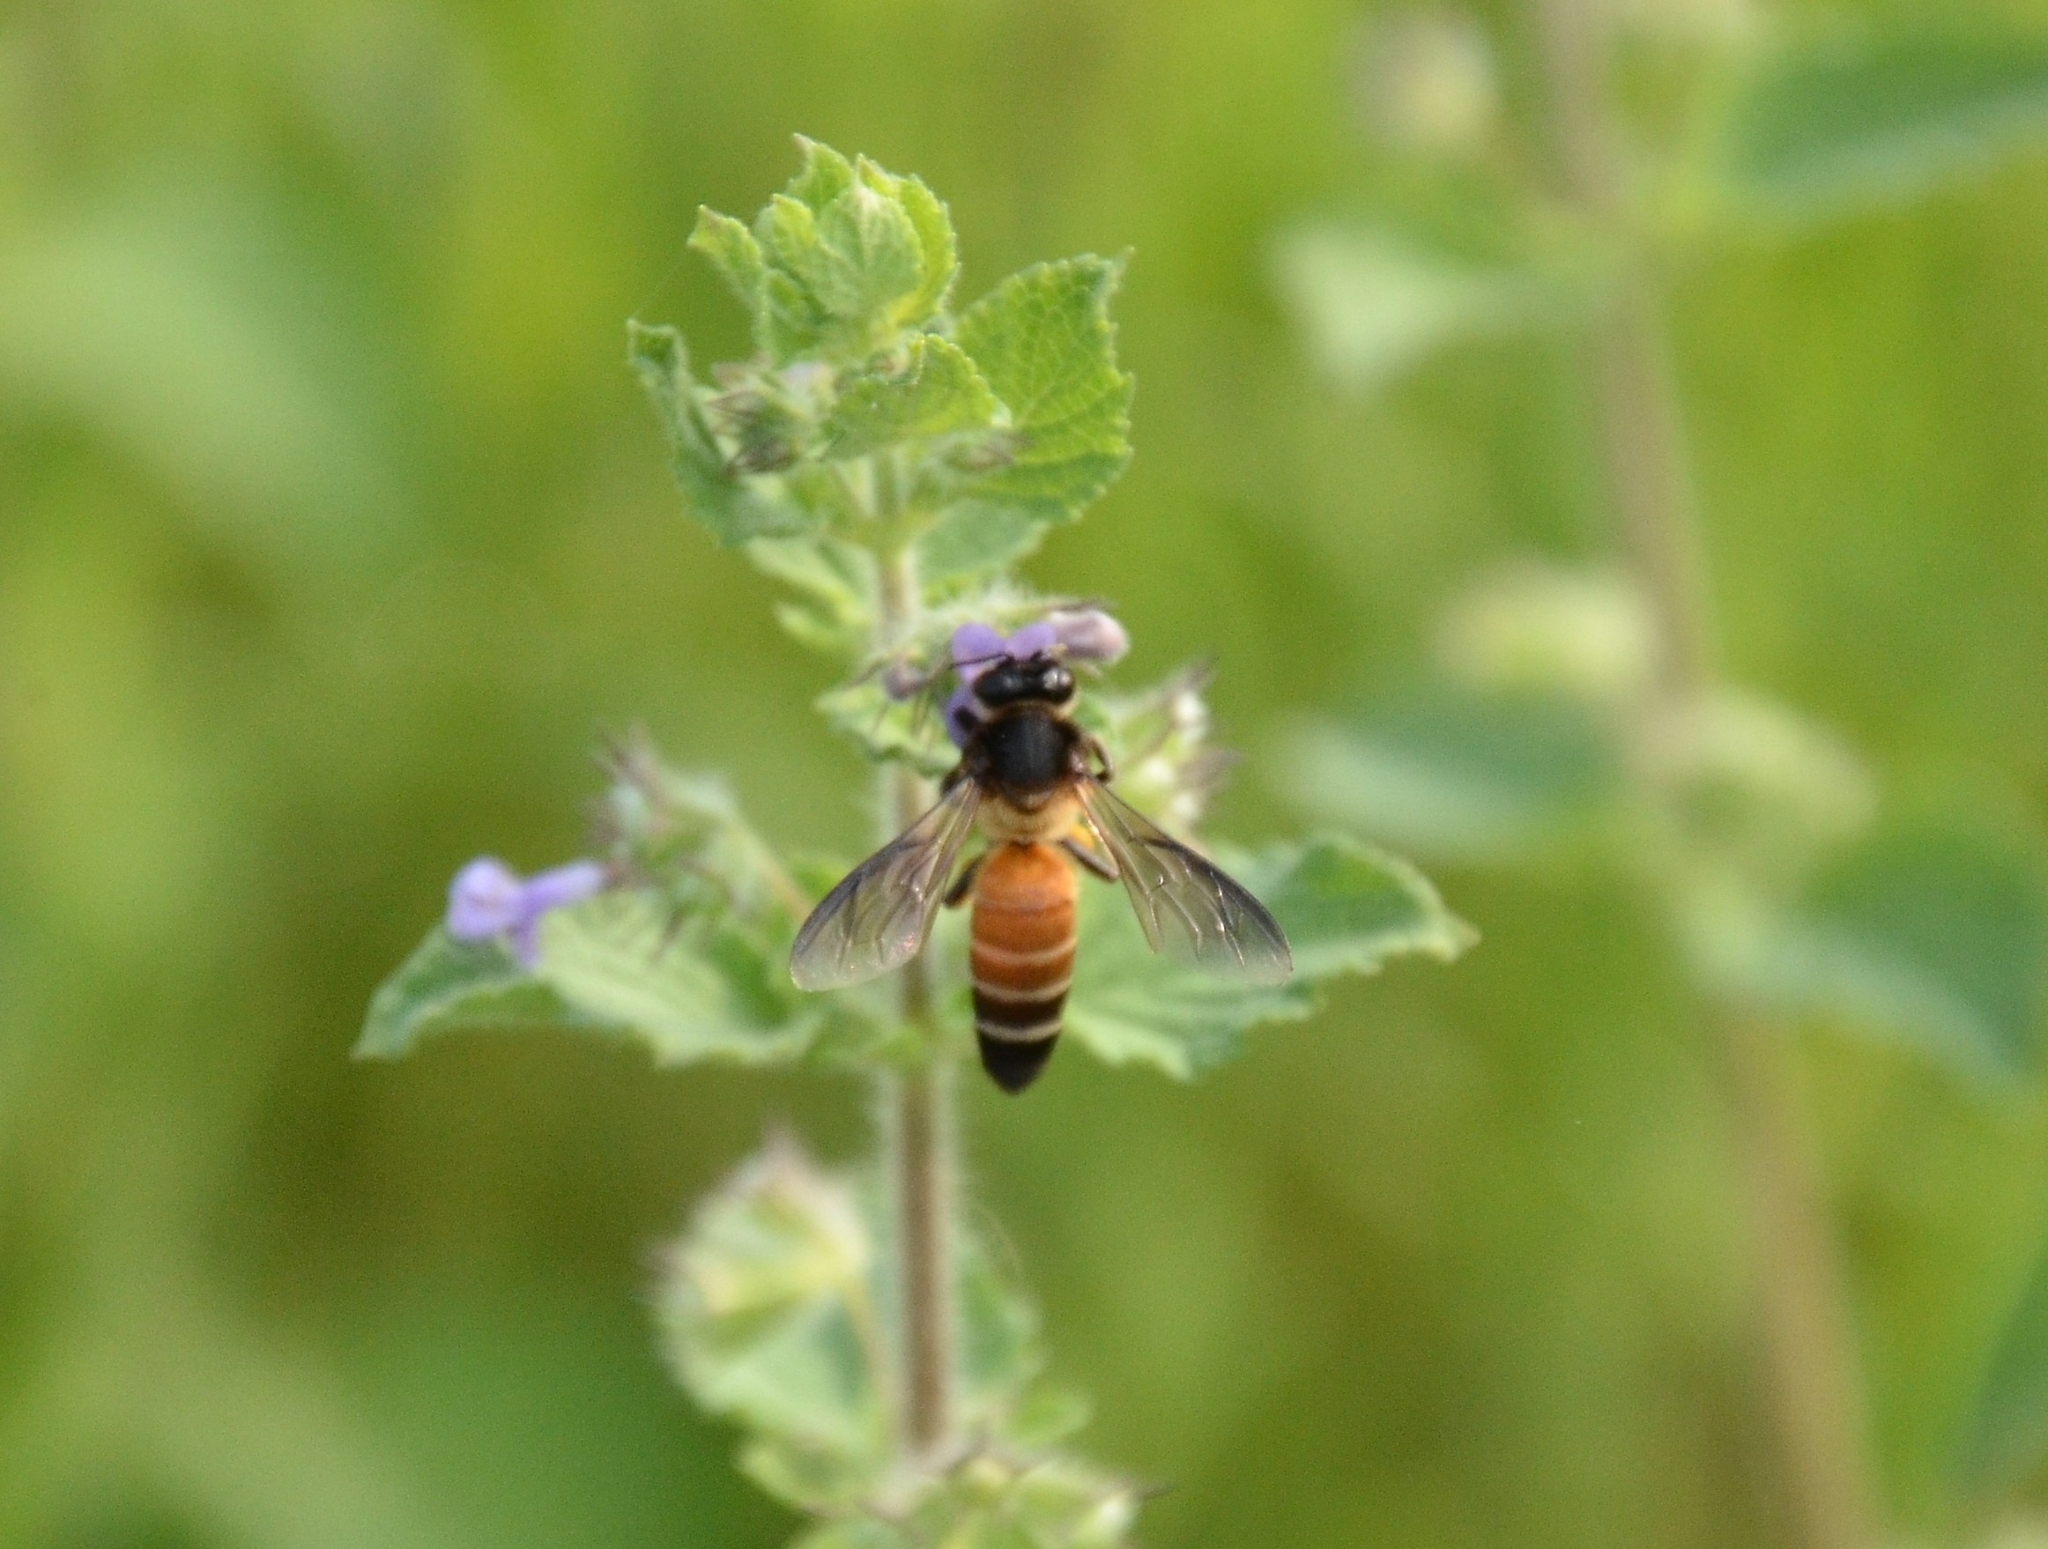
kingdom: Animalia
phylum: Arthropoda
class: Insecta
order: Hymenoptera
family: Apidae
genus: Apis
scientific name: Apis dorsata
